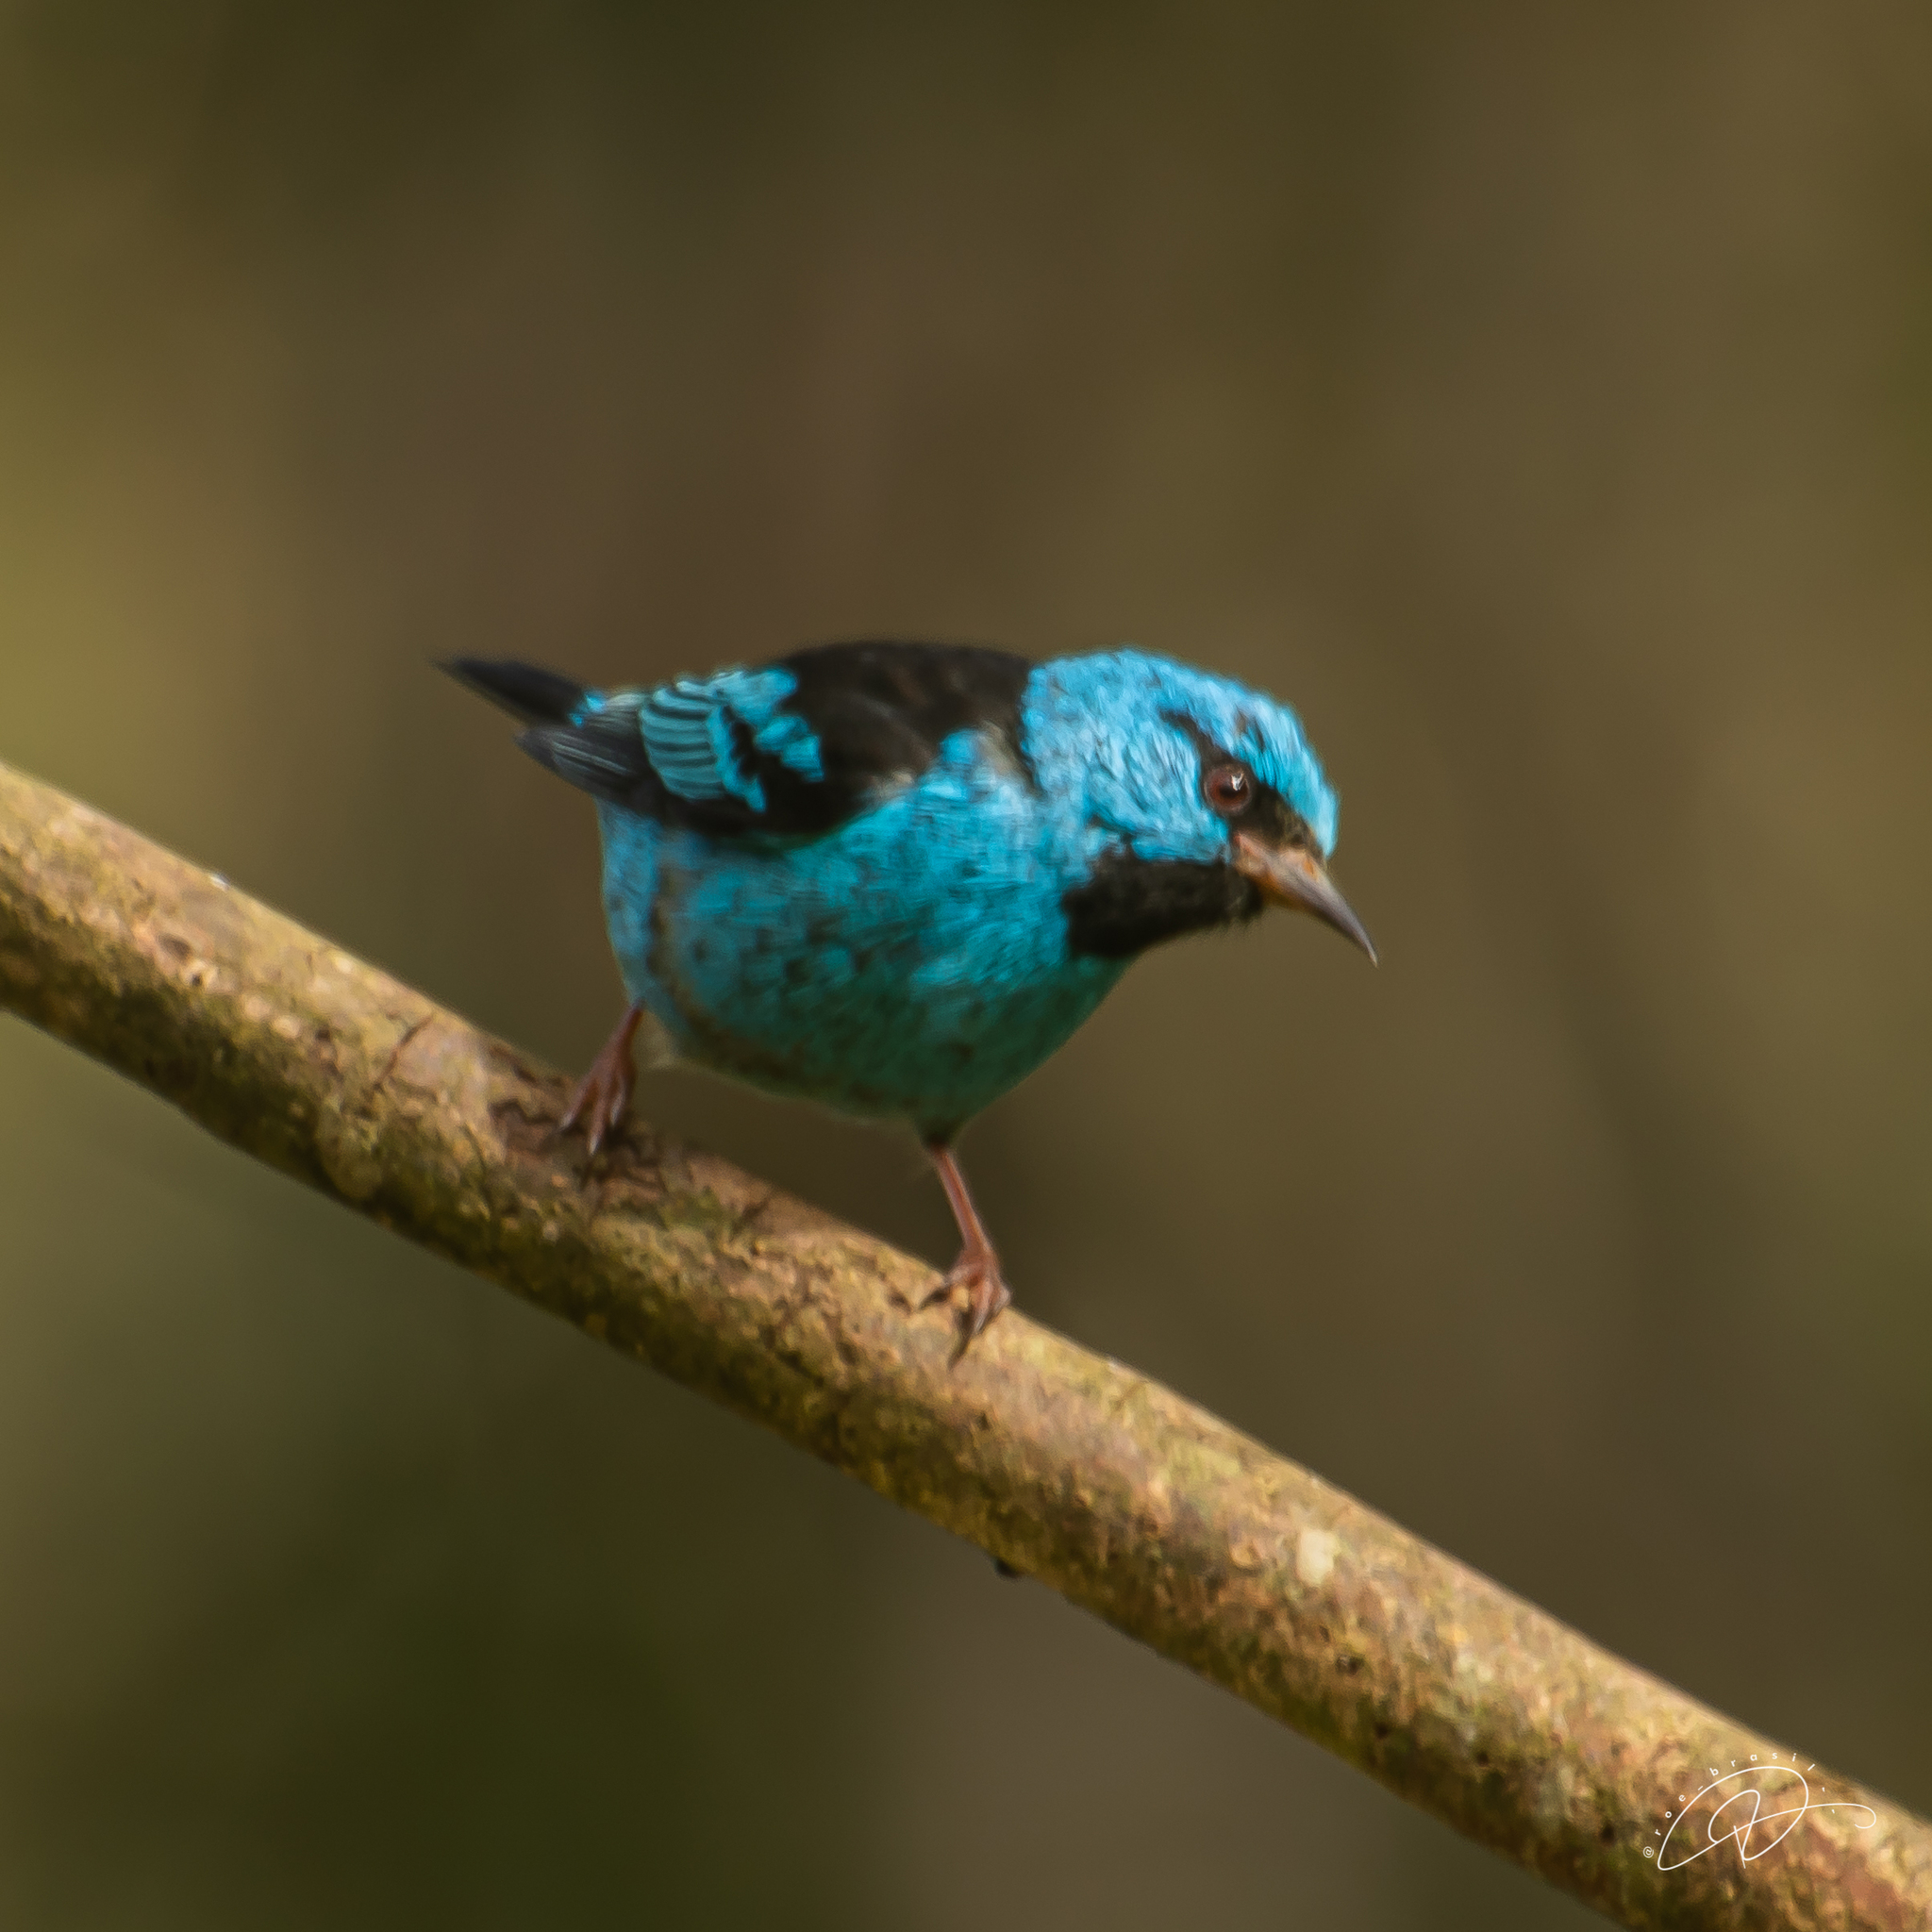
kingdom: Animalia
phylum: Chordata
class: Aves
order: Passeriformes
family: Thraupidae
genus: Dacnis
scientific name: Dacnis cayana
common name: Blue dacnis
